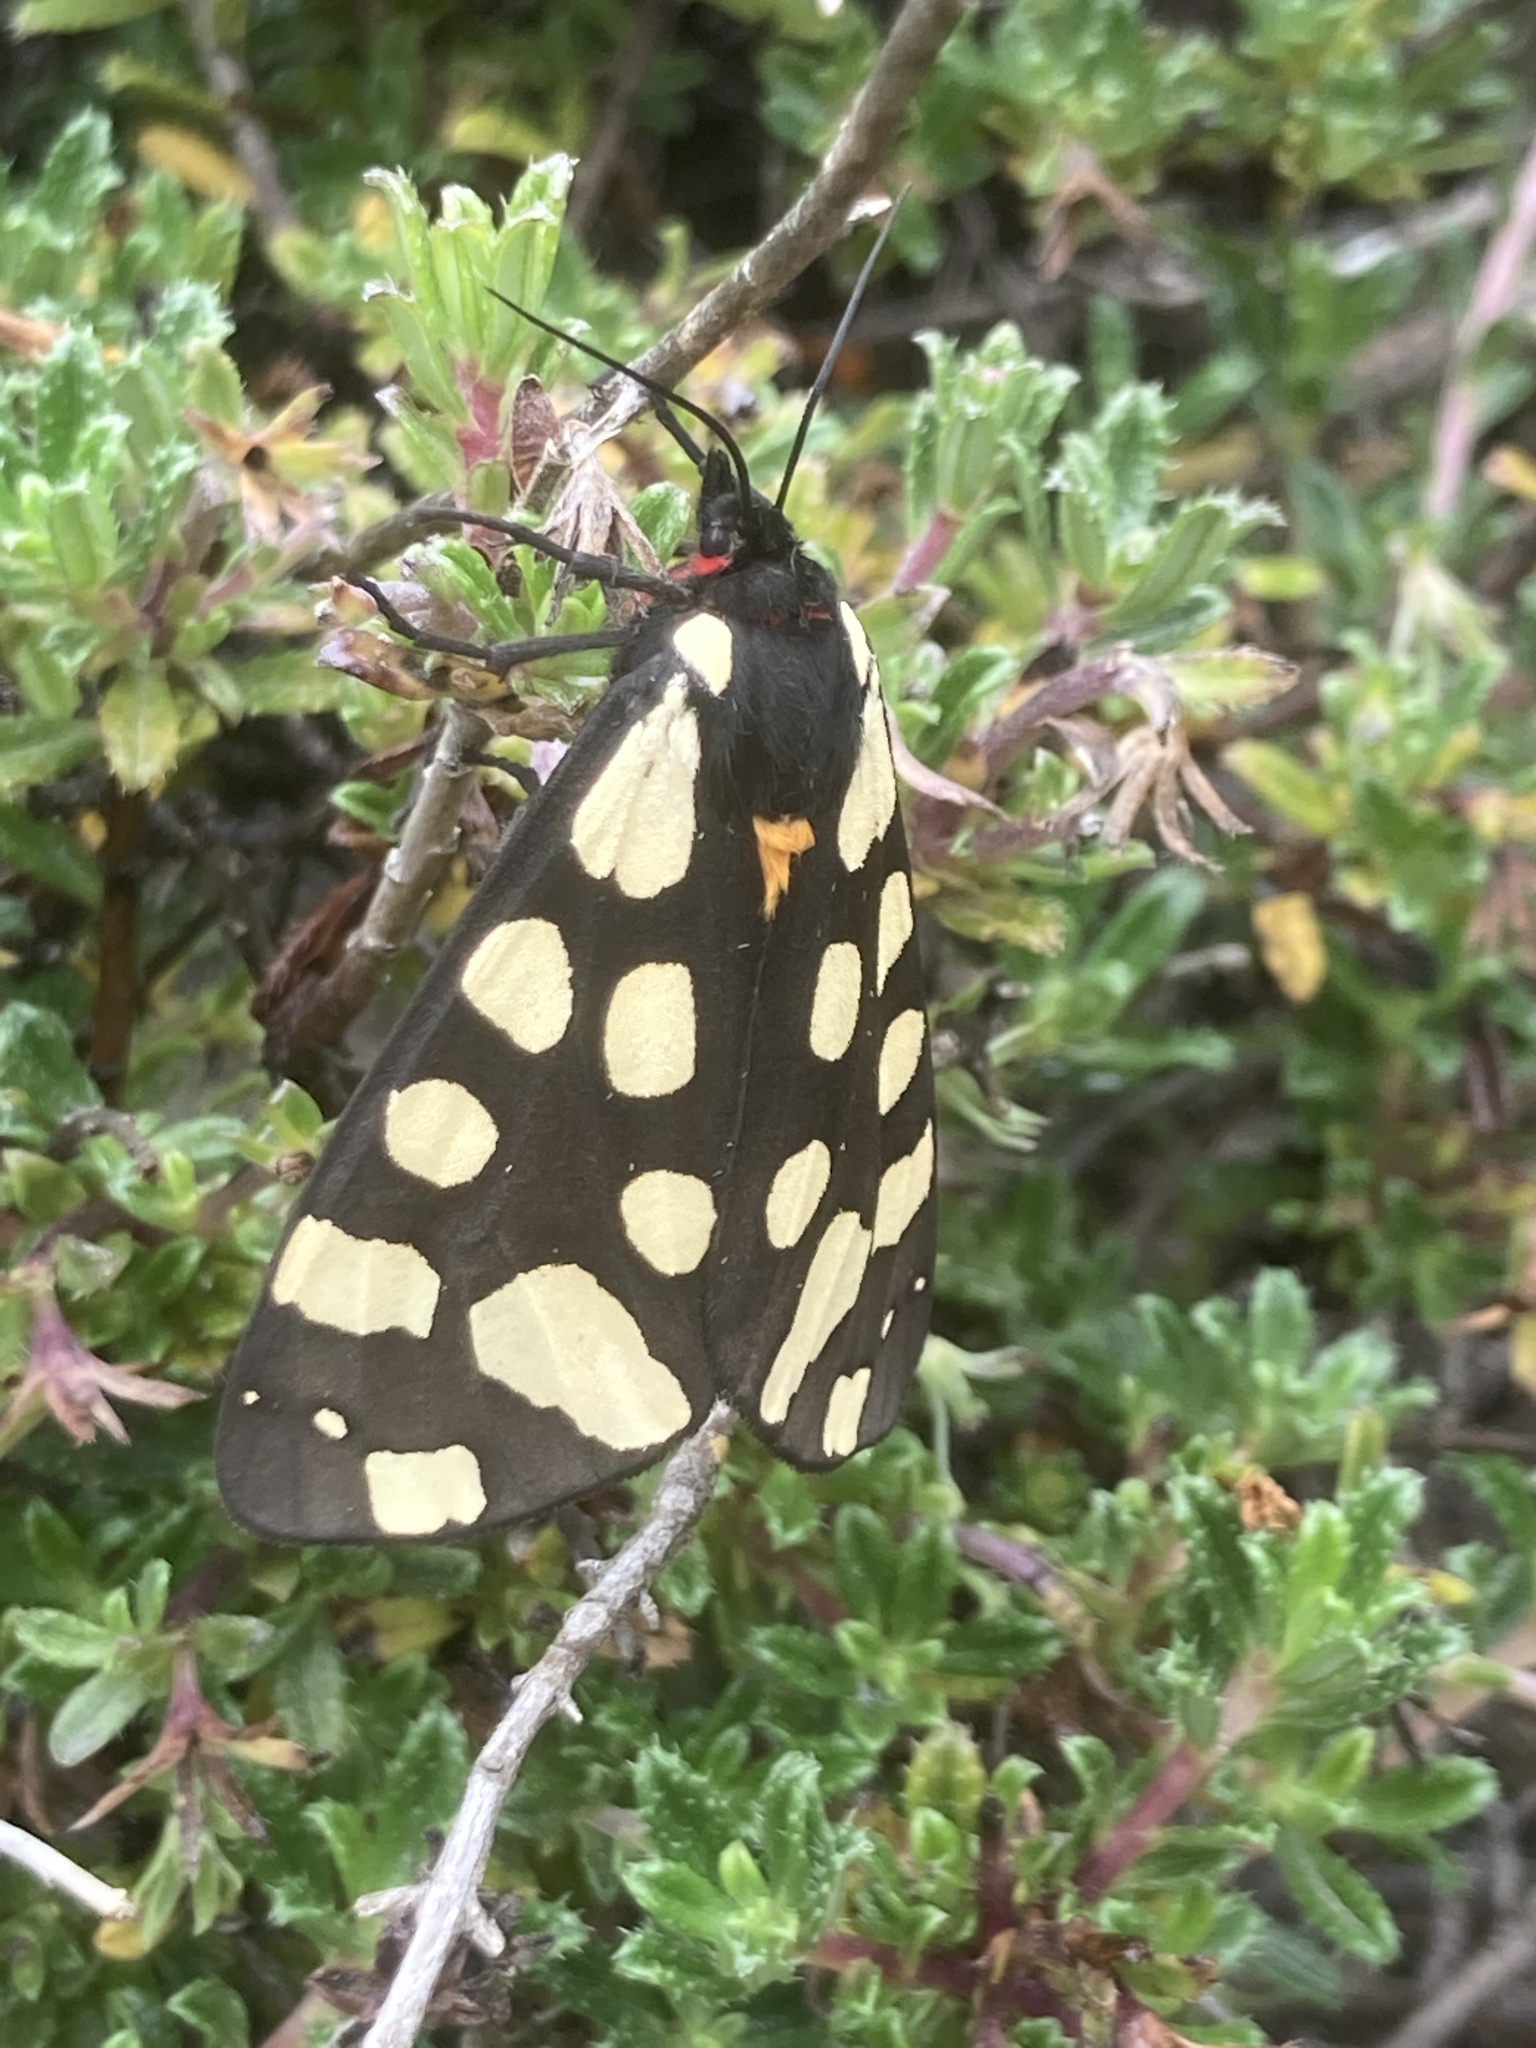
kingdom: Animalia
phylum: Arthropoda
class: Insecta
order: Lepidoptera
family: Erebidae
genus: Epicallia
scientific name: Epicallia villica
